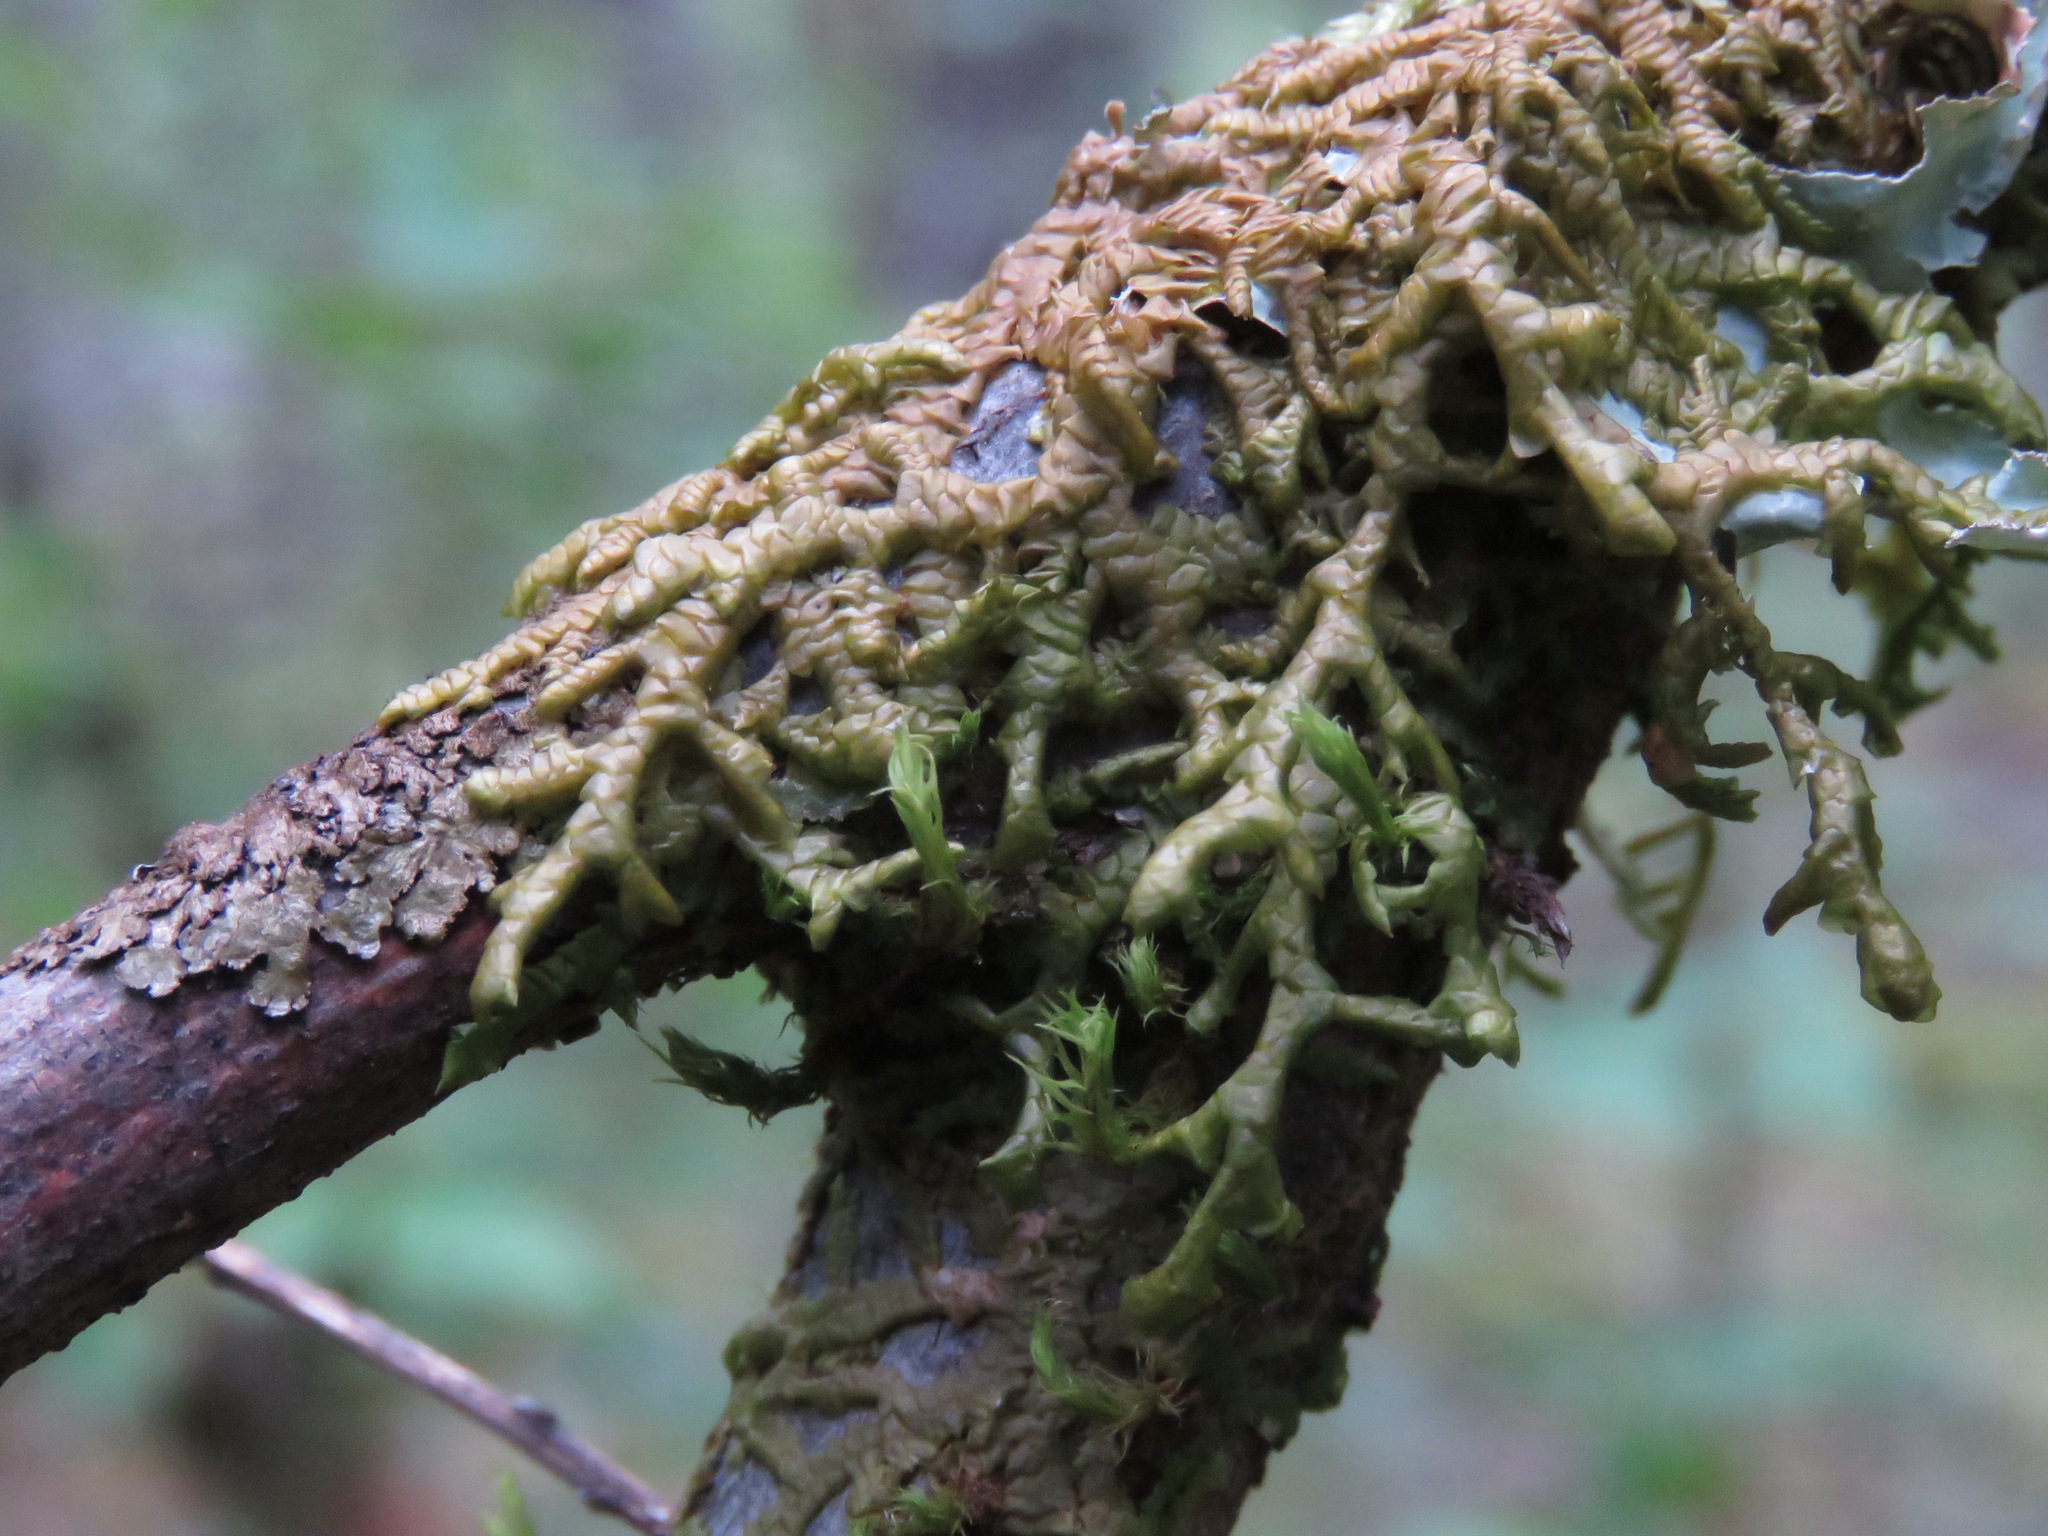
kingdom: Plantae
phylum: Marchantiophyta
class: Jungermanniopsida
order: Porellales
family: Porellaceae
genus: Porella
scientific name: Porella navicularis
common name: Tree ruffle liverwort
